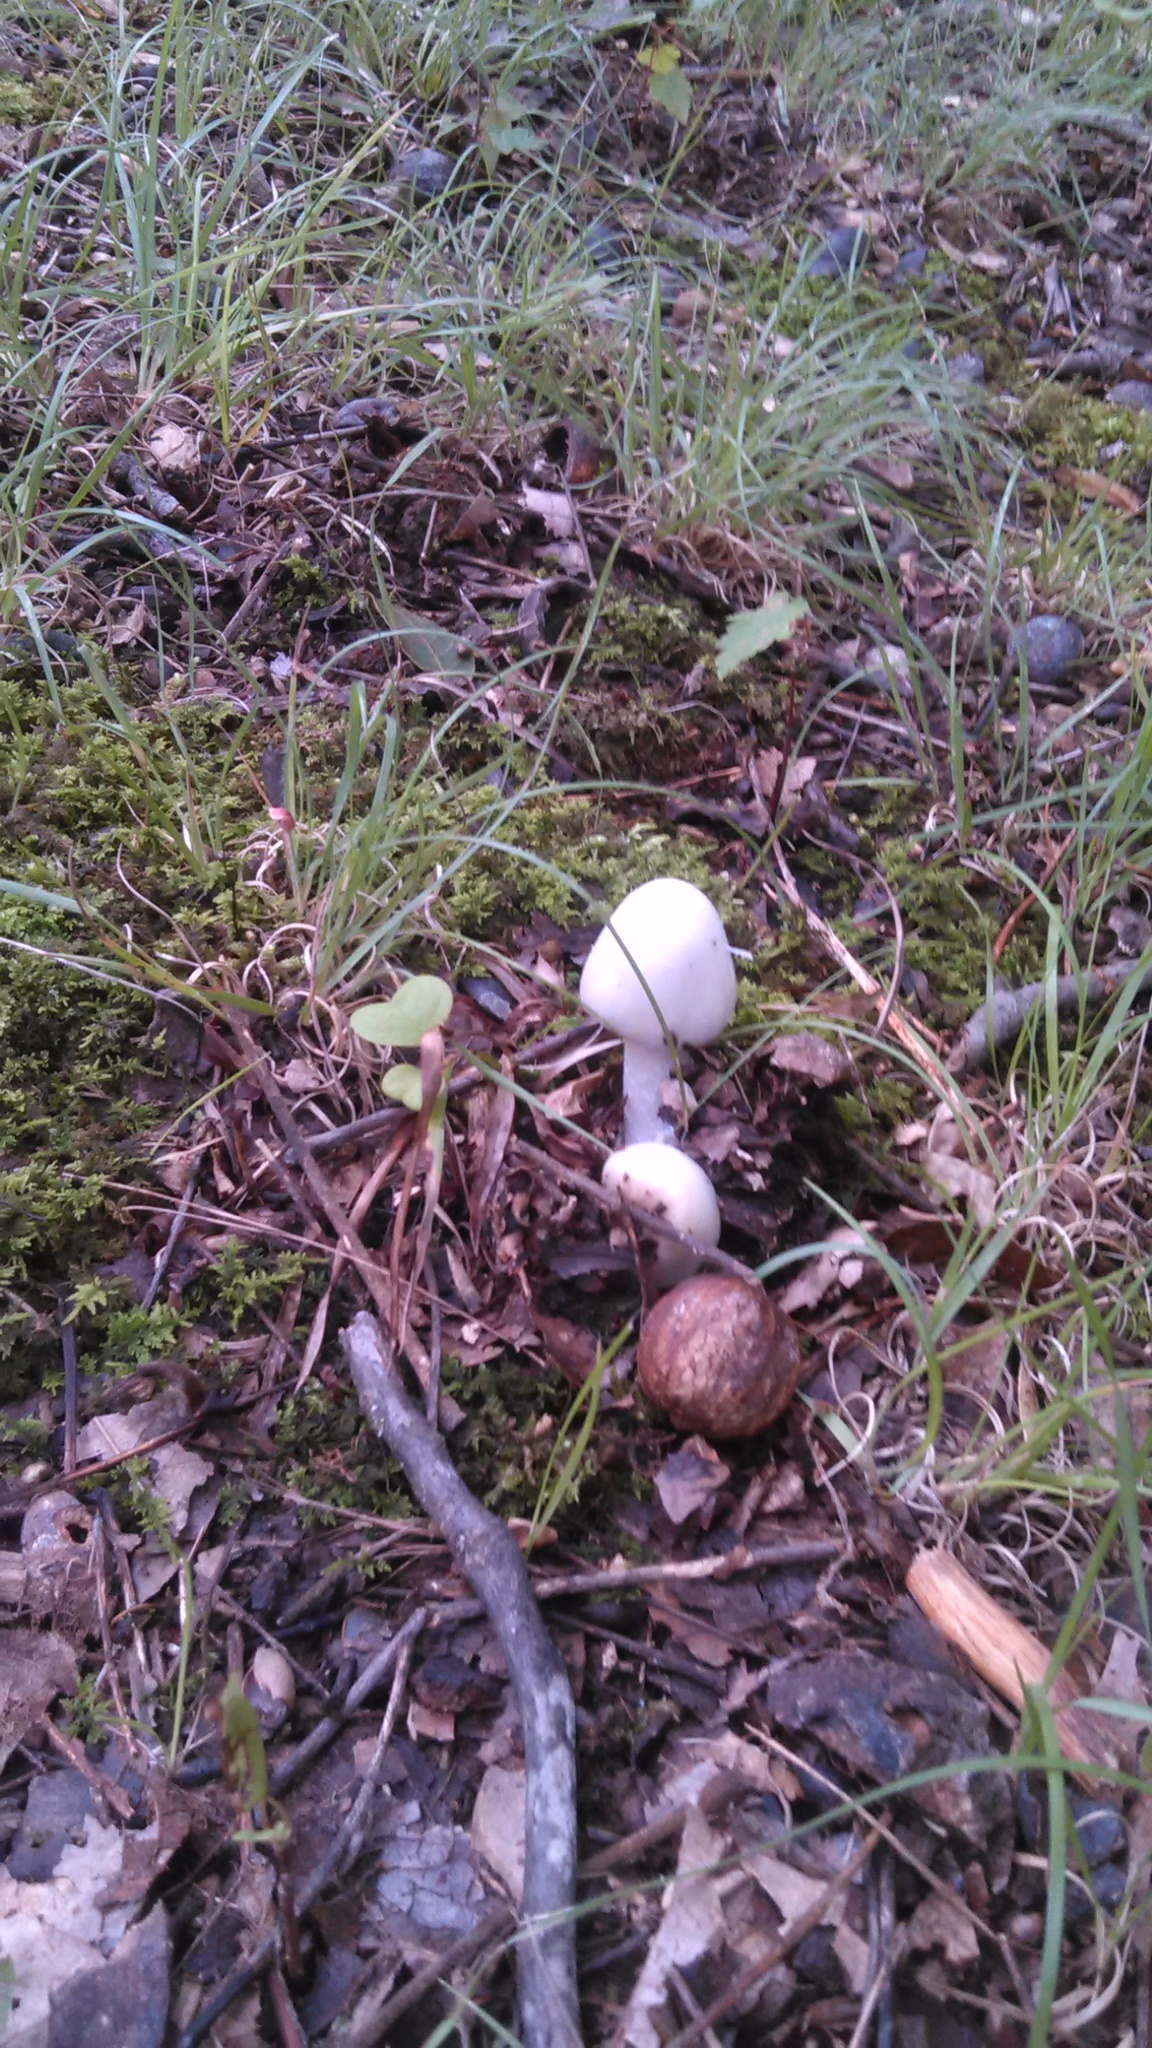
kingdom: Fungi
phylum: Basidiomycota
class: Agaricomycetes
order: Agaricales
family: Amanitaceae
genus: Amanita
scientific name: Amanita bisporigera
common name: Eastern north american destroying angel
